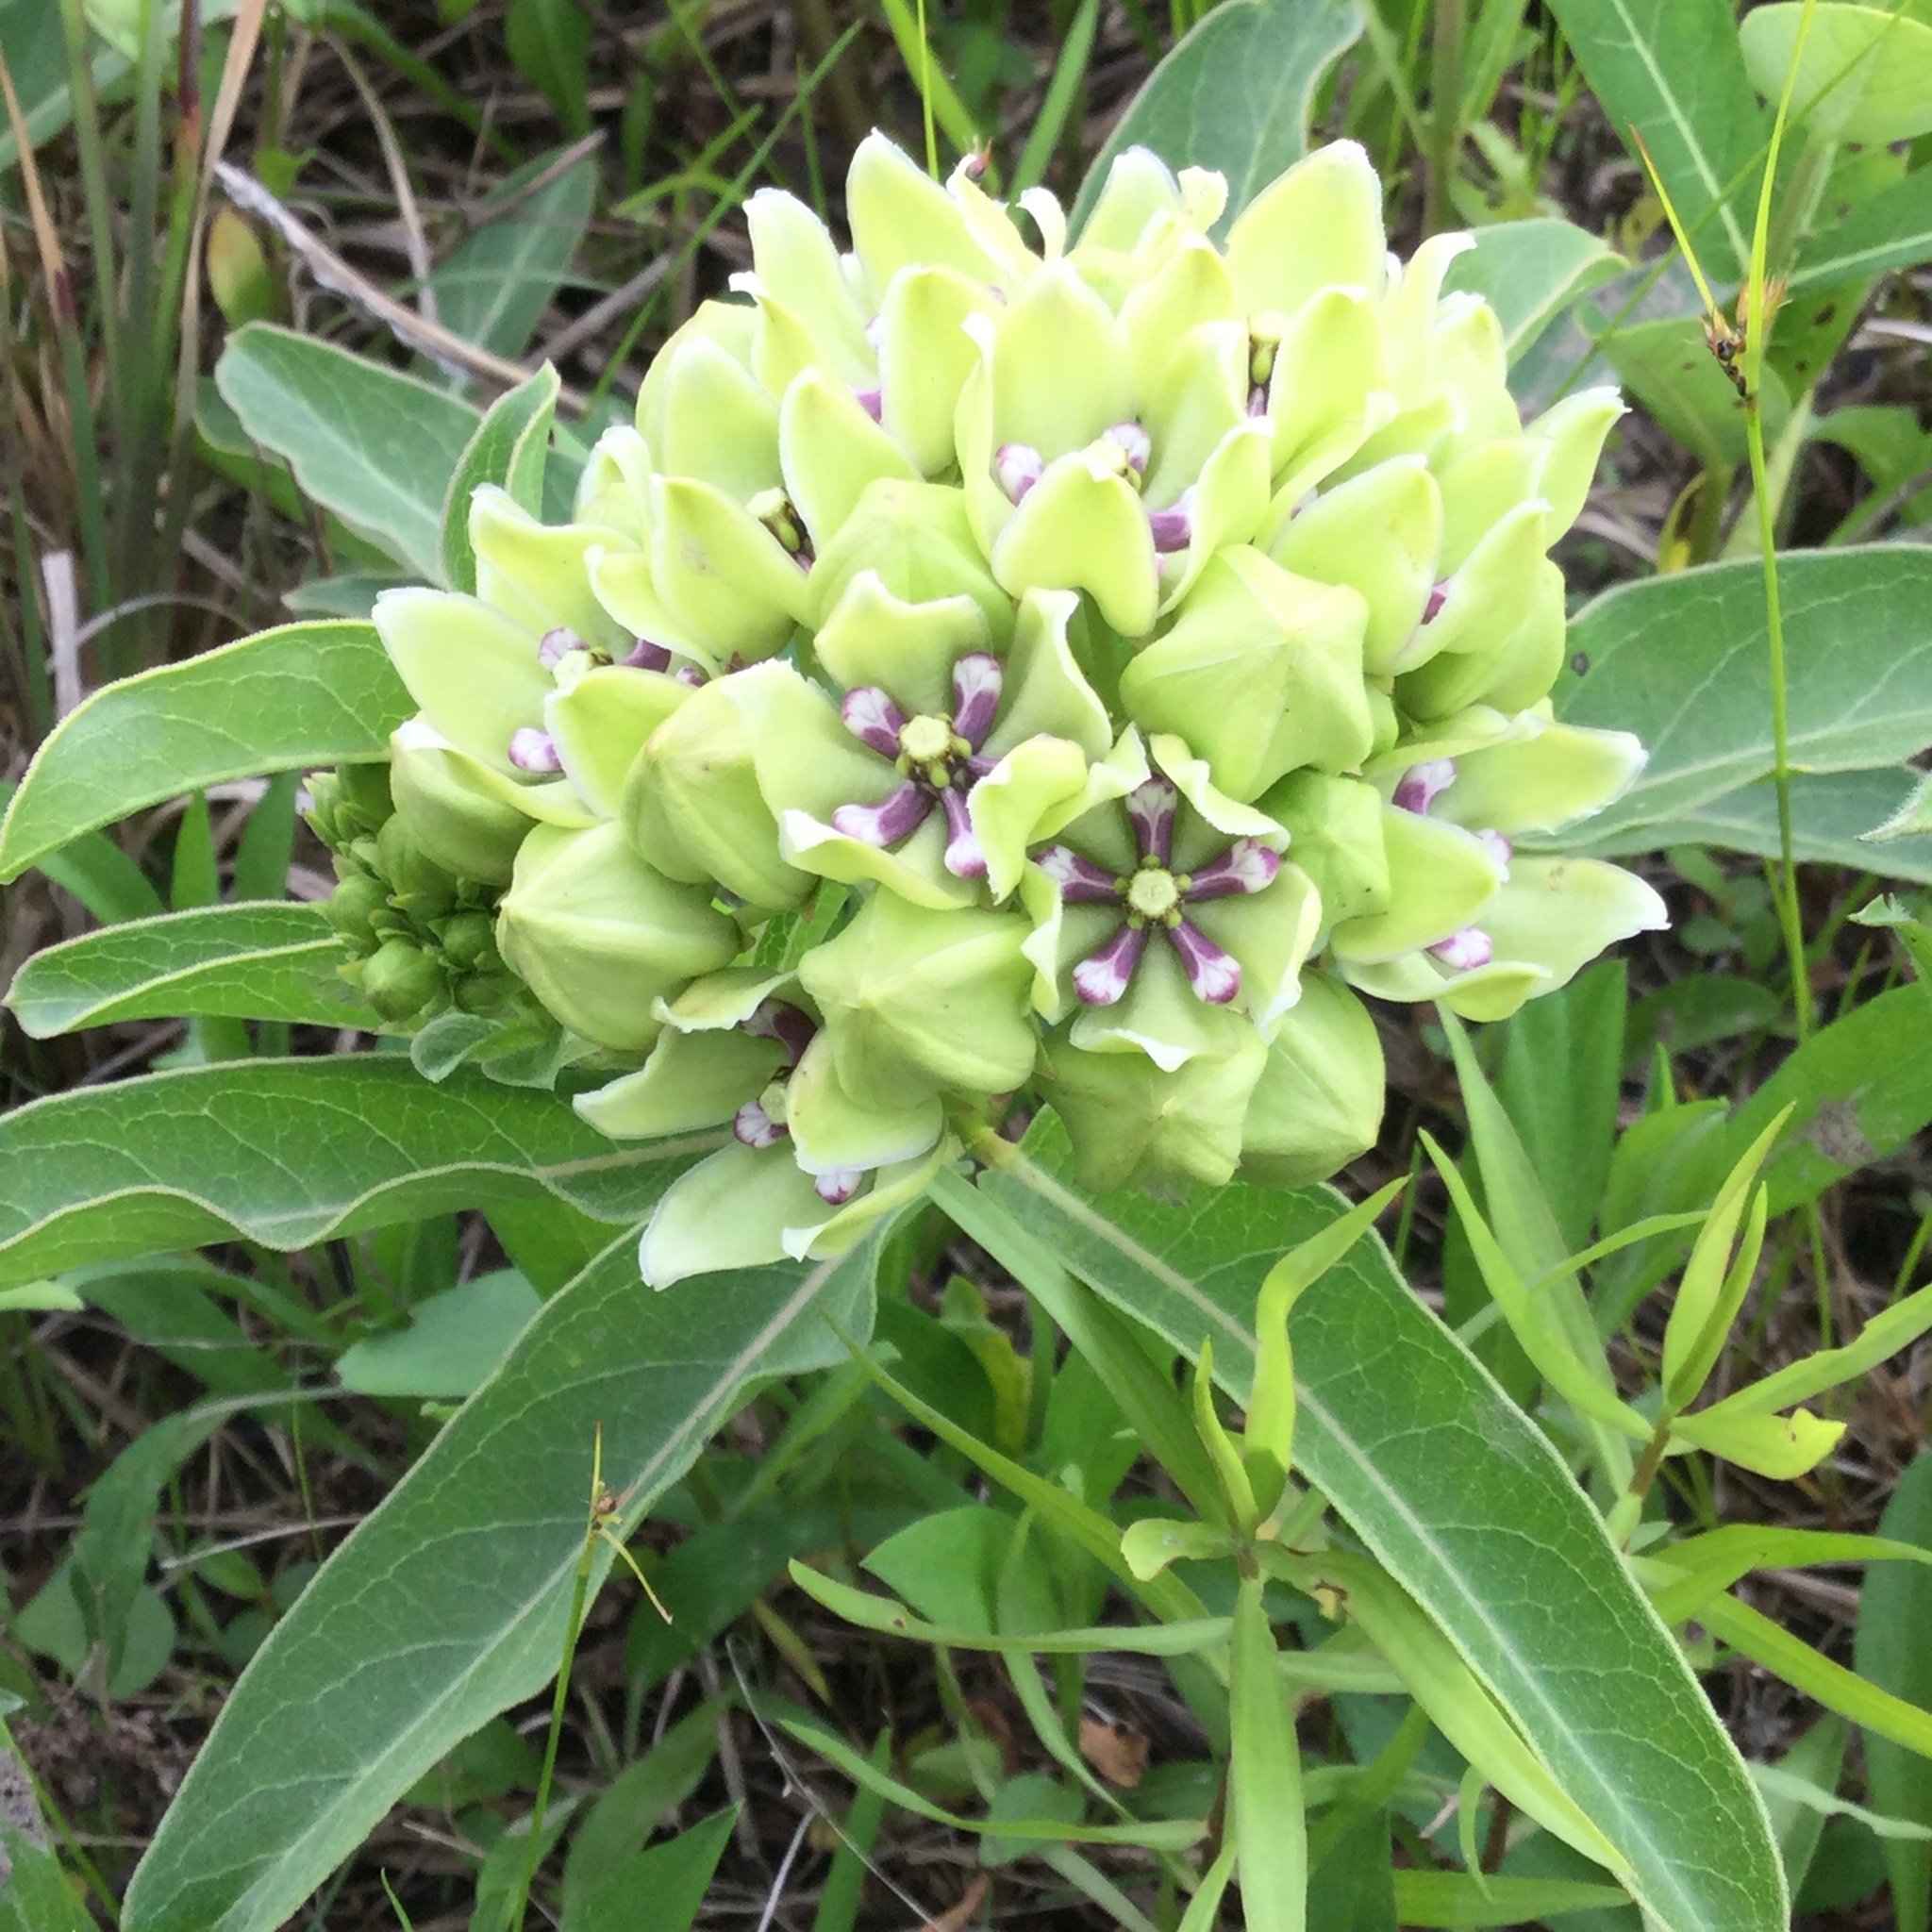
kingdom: Plantae
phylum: Tracheophyta
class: Magnoliopsida
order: Gentianales
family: Apocynaceae
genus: Asclepias
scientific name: Asclepias viridis
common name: Antelope-horns
